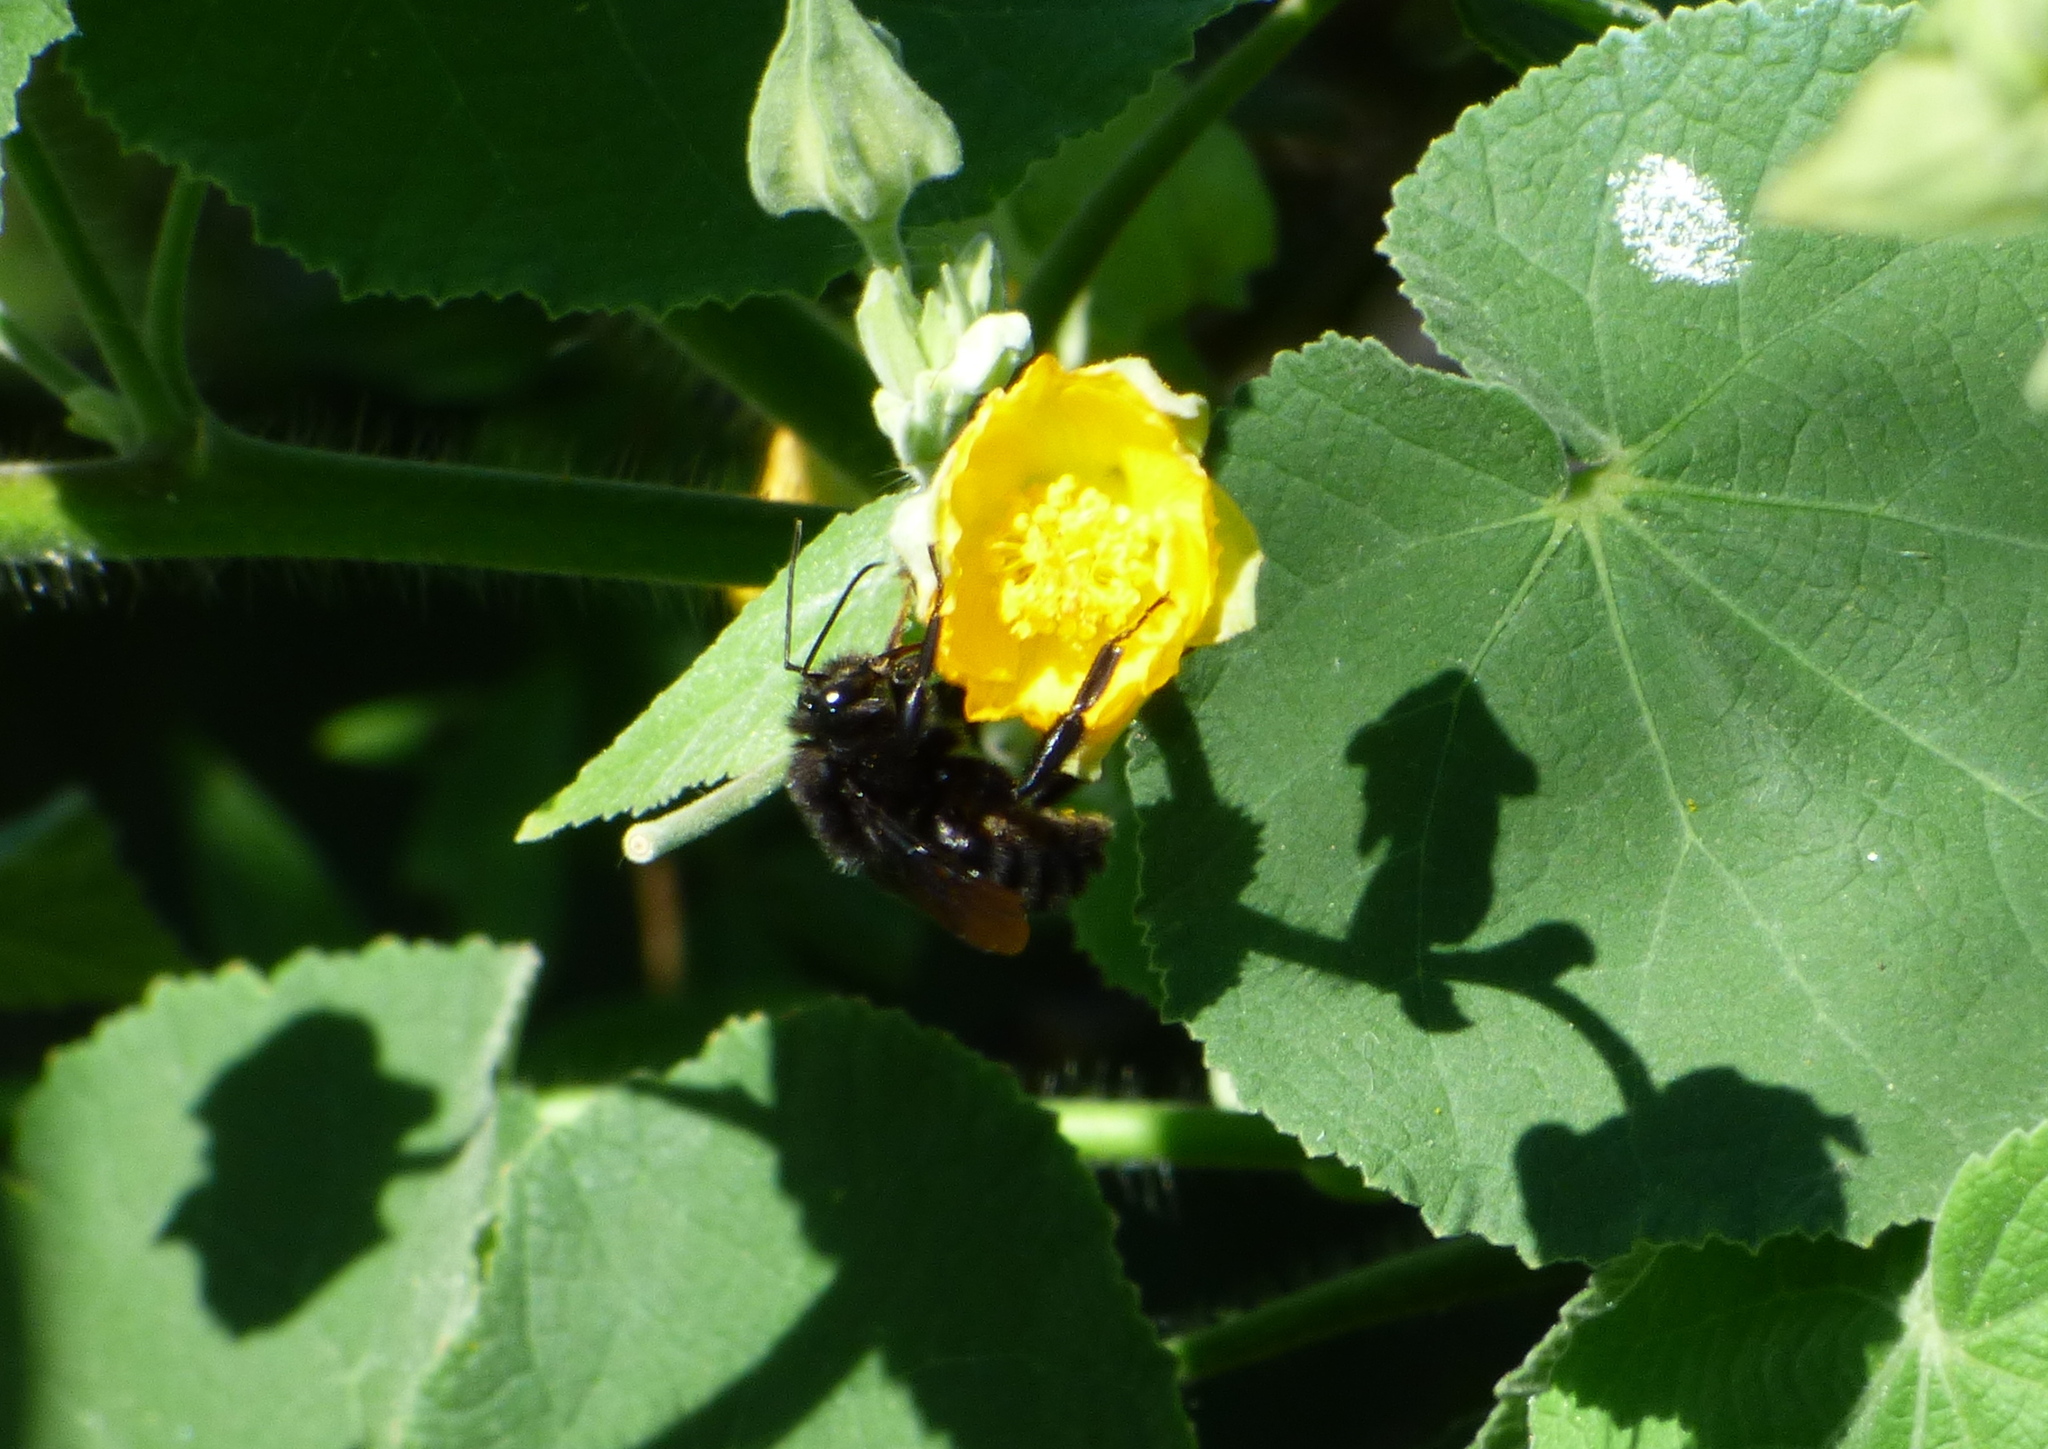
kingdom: Animalia
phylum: Arthropoda
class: Insecta
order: Hymenoptera
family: Apidae
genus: Bombus
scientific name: Bombus pauloensis
